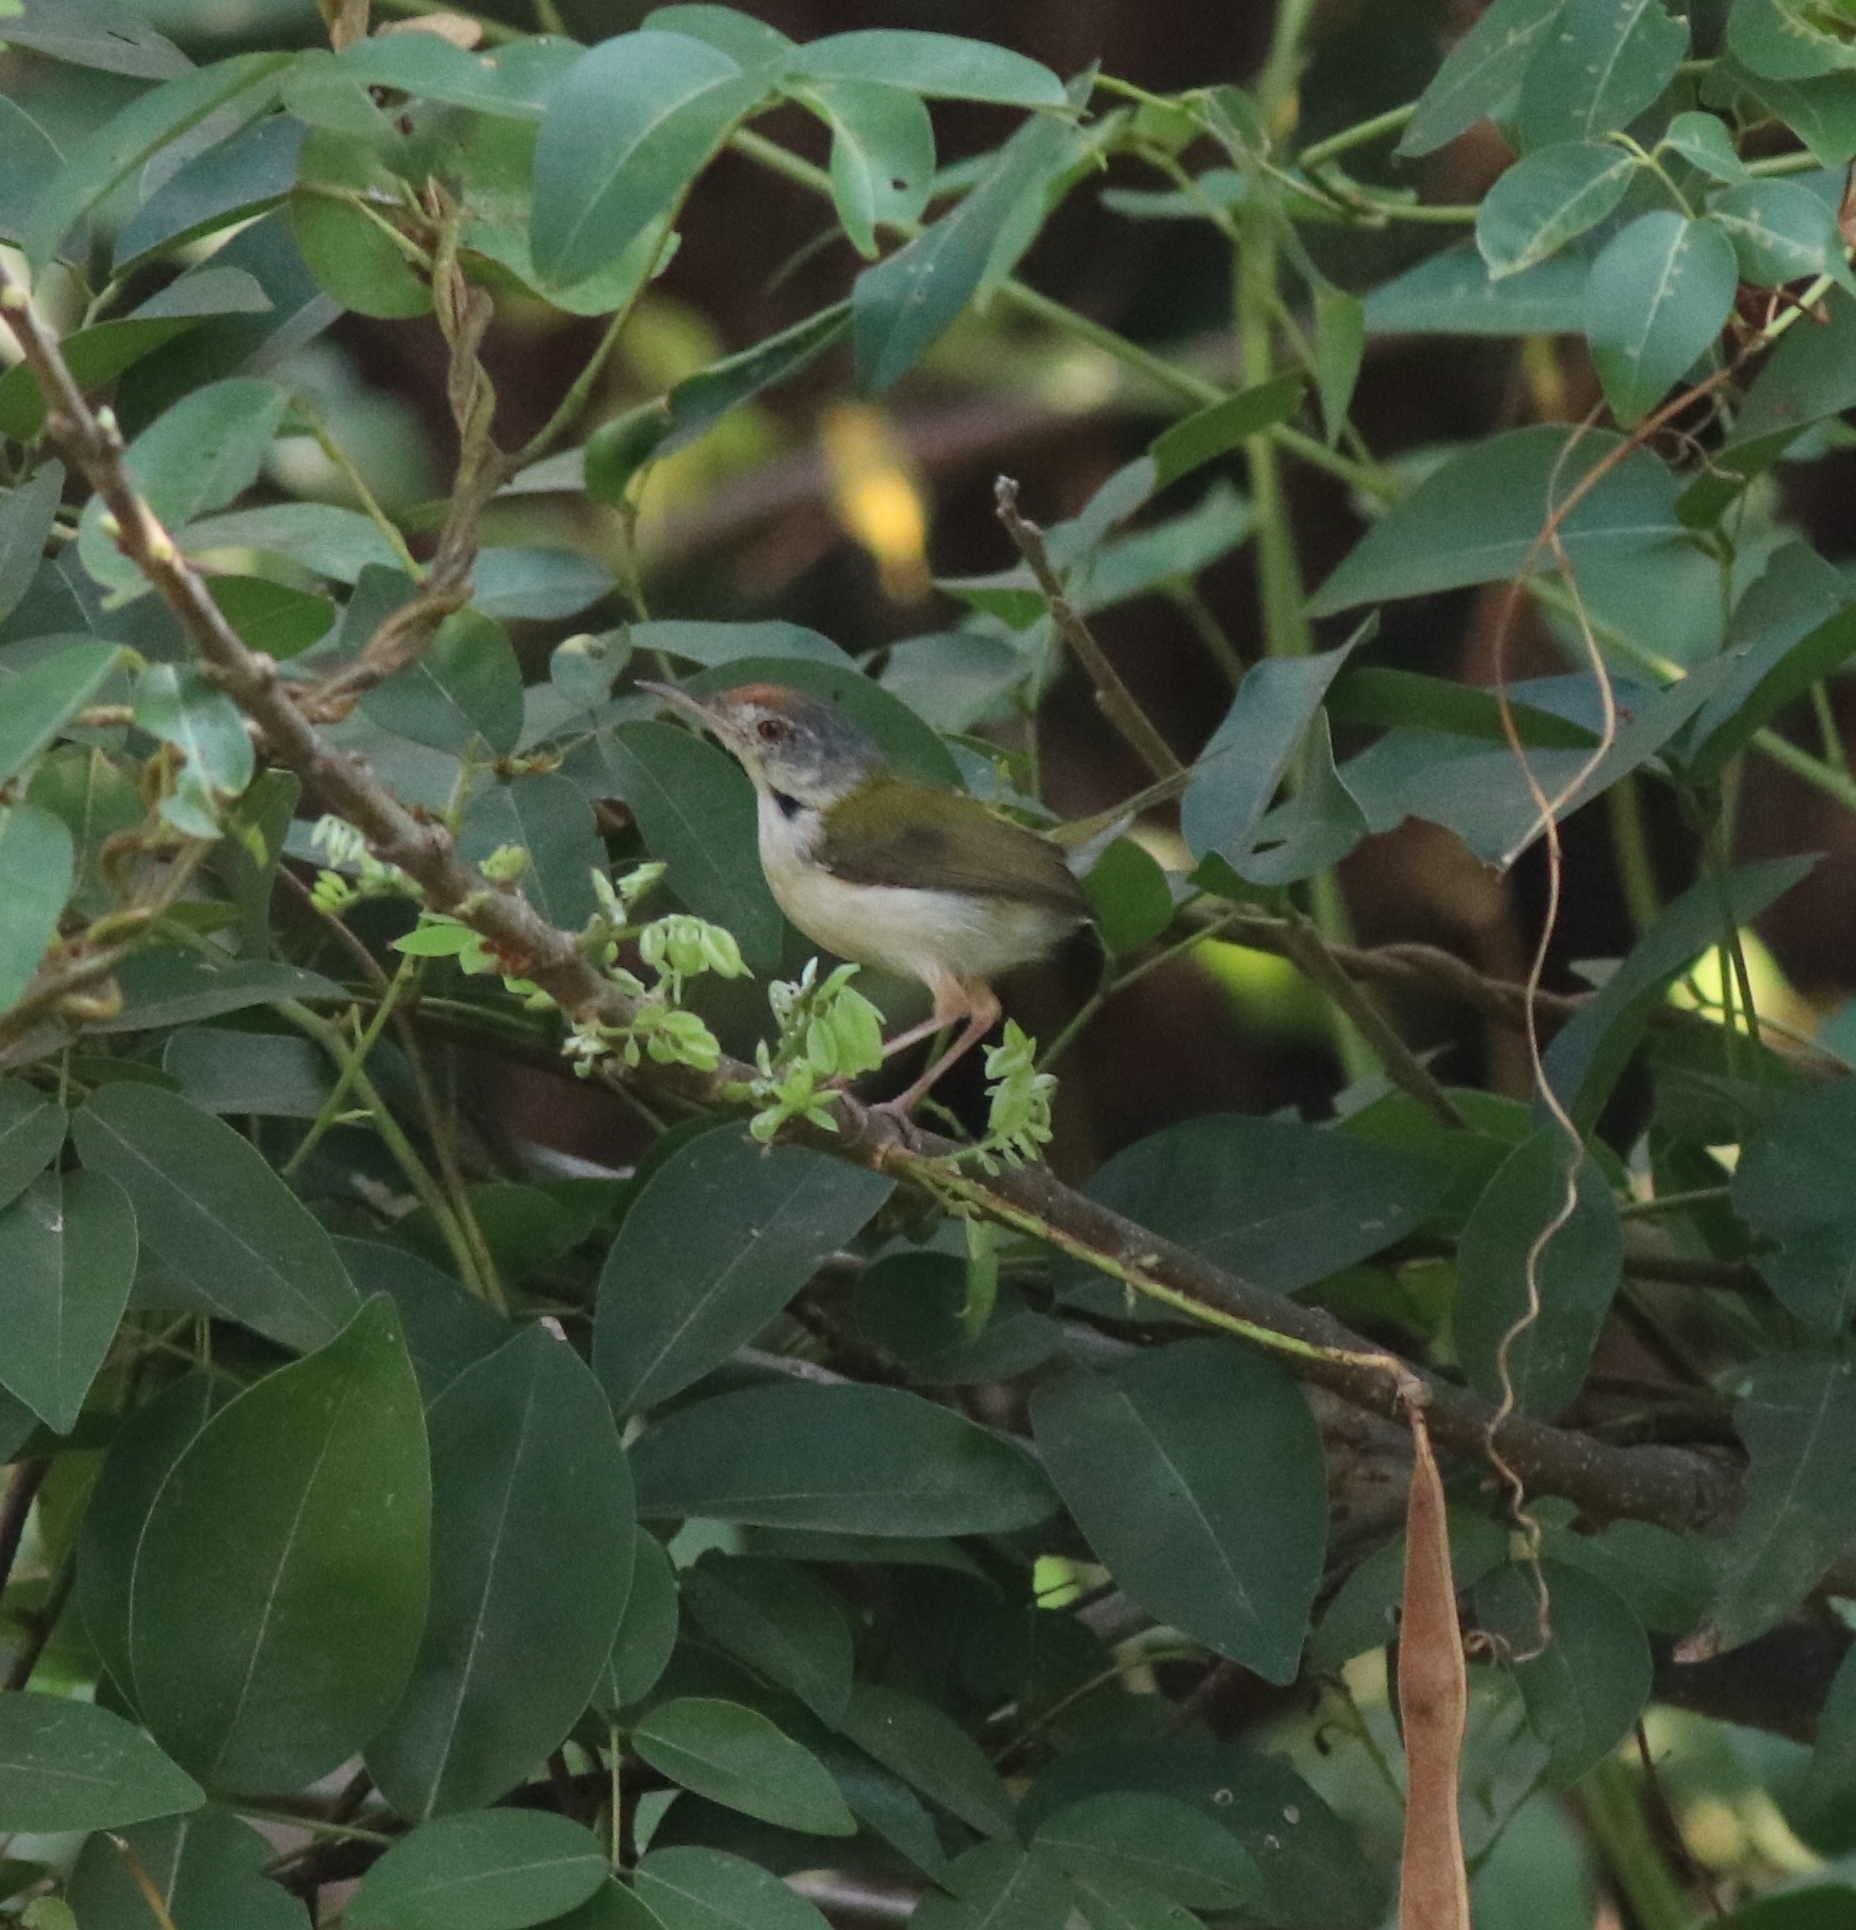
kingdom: Animalia
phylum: Chordata
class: Aves
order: Passeriformes
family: Cisticolidae
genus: Orthotomus
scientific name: Orthotomus sutorius
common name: Common tailorbird
